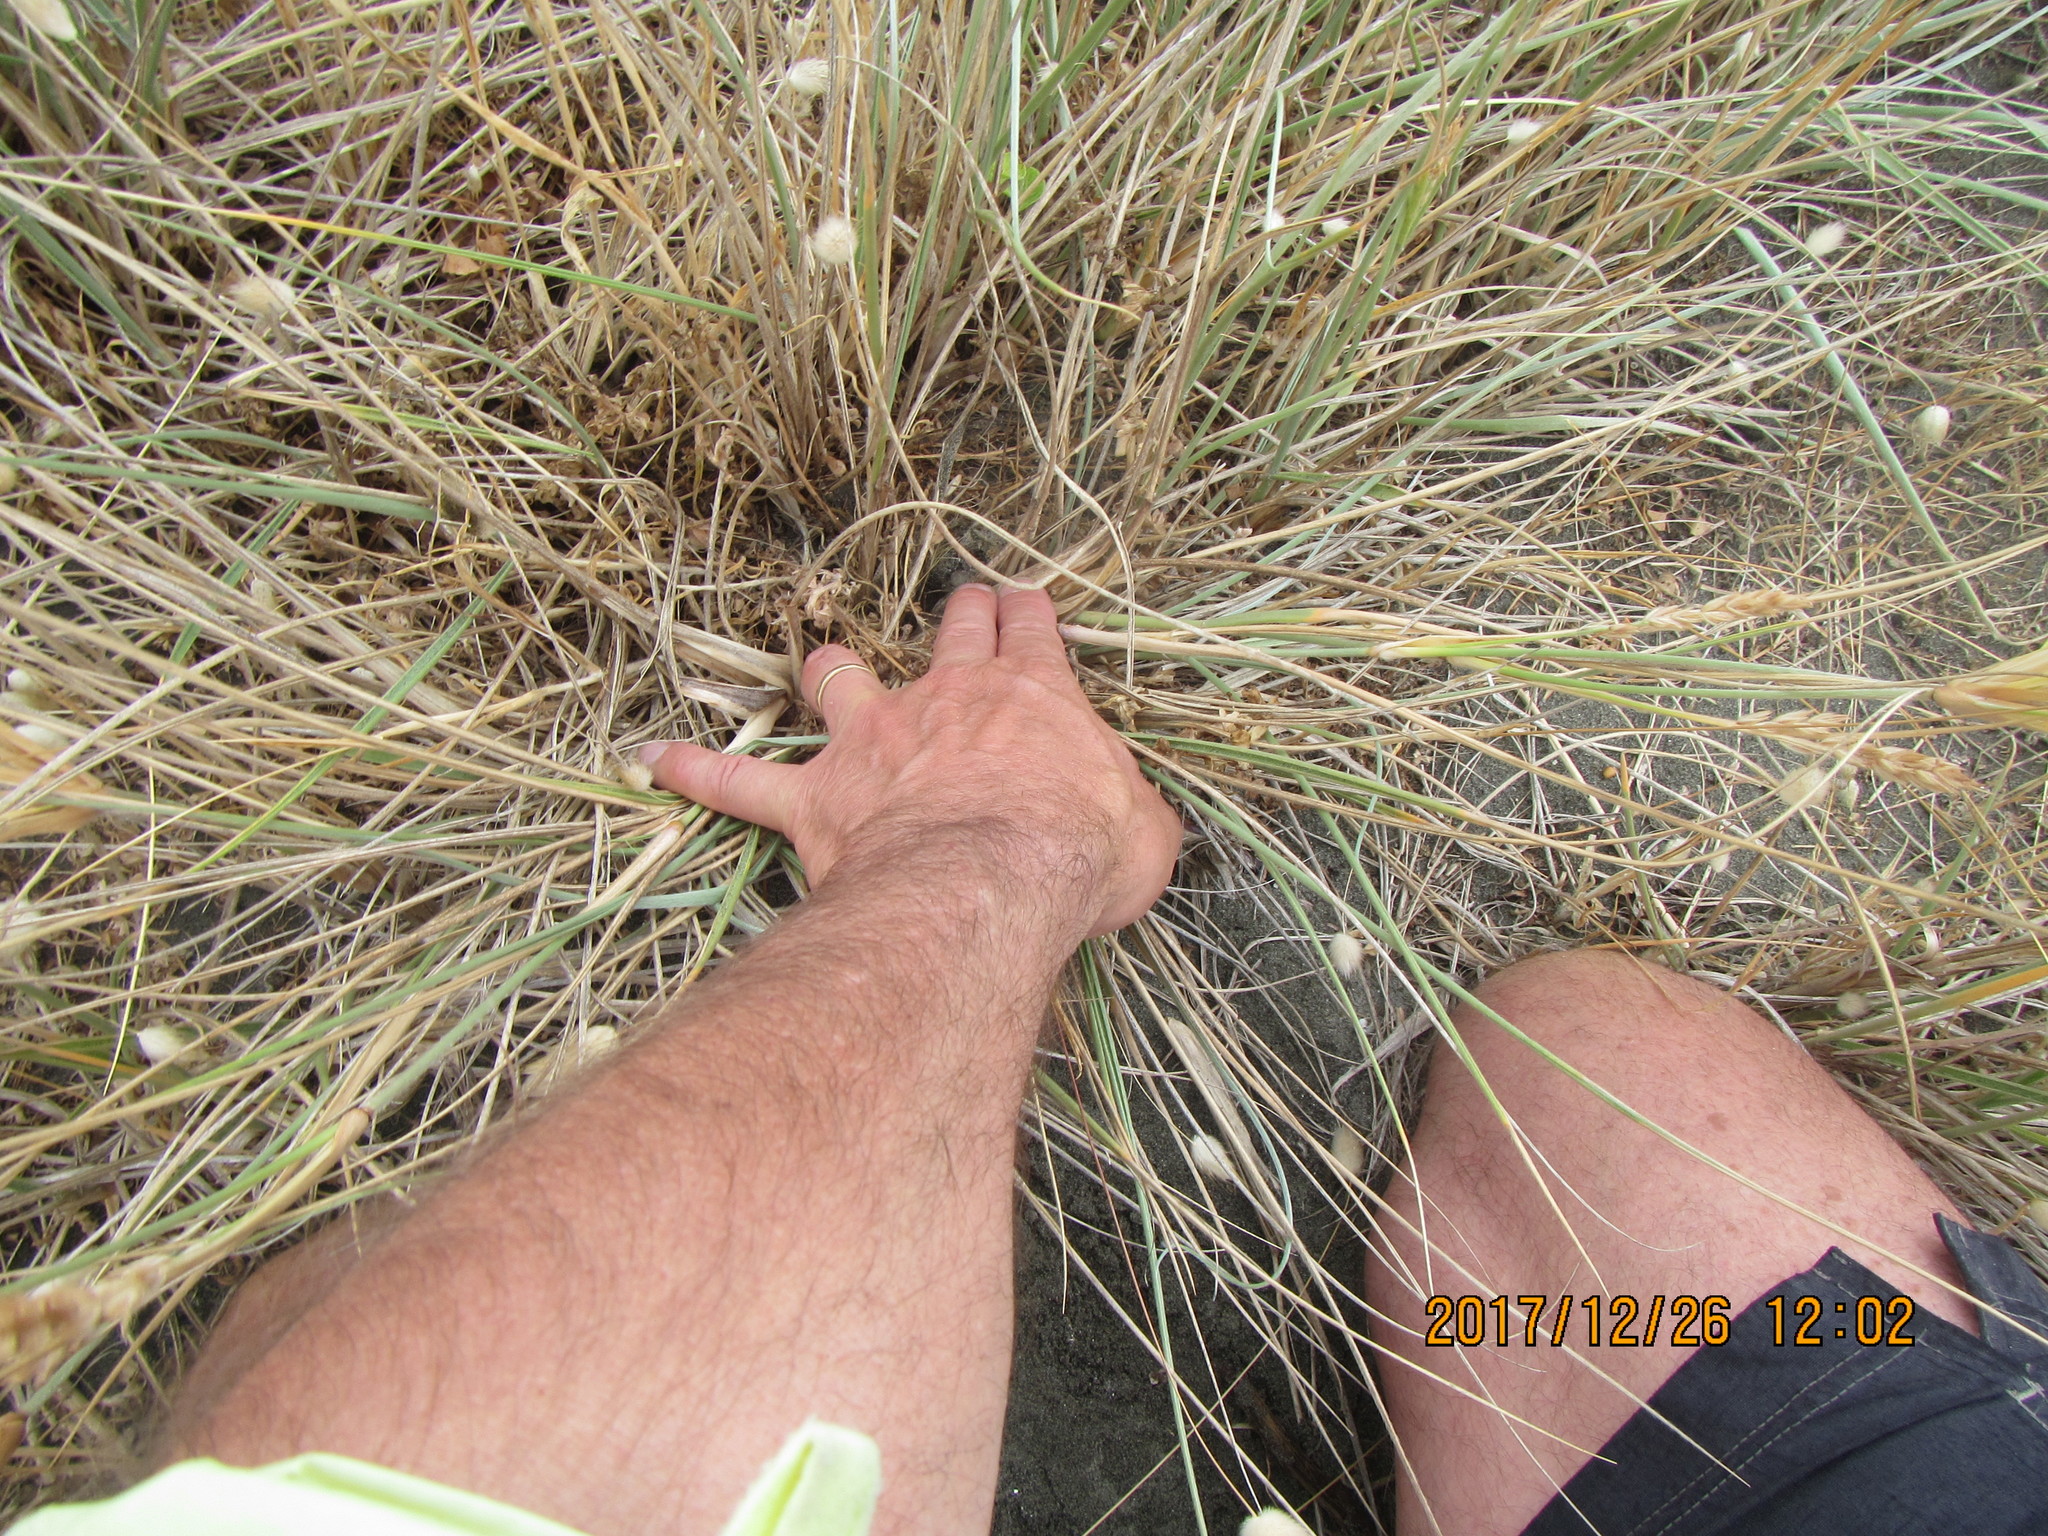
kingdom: Animalia
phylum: Arthropoda
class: Arachnida
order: Araneae
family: Theridiidae
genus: Latrodectus
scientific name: Latrodectus katipo
